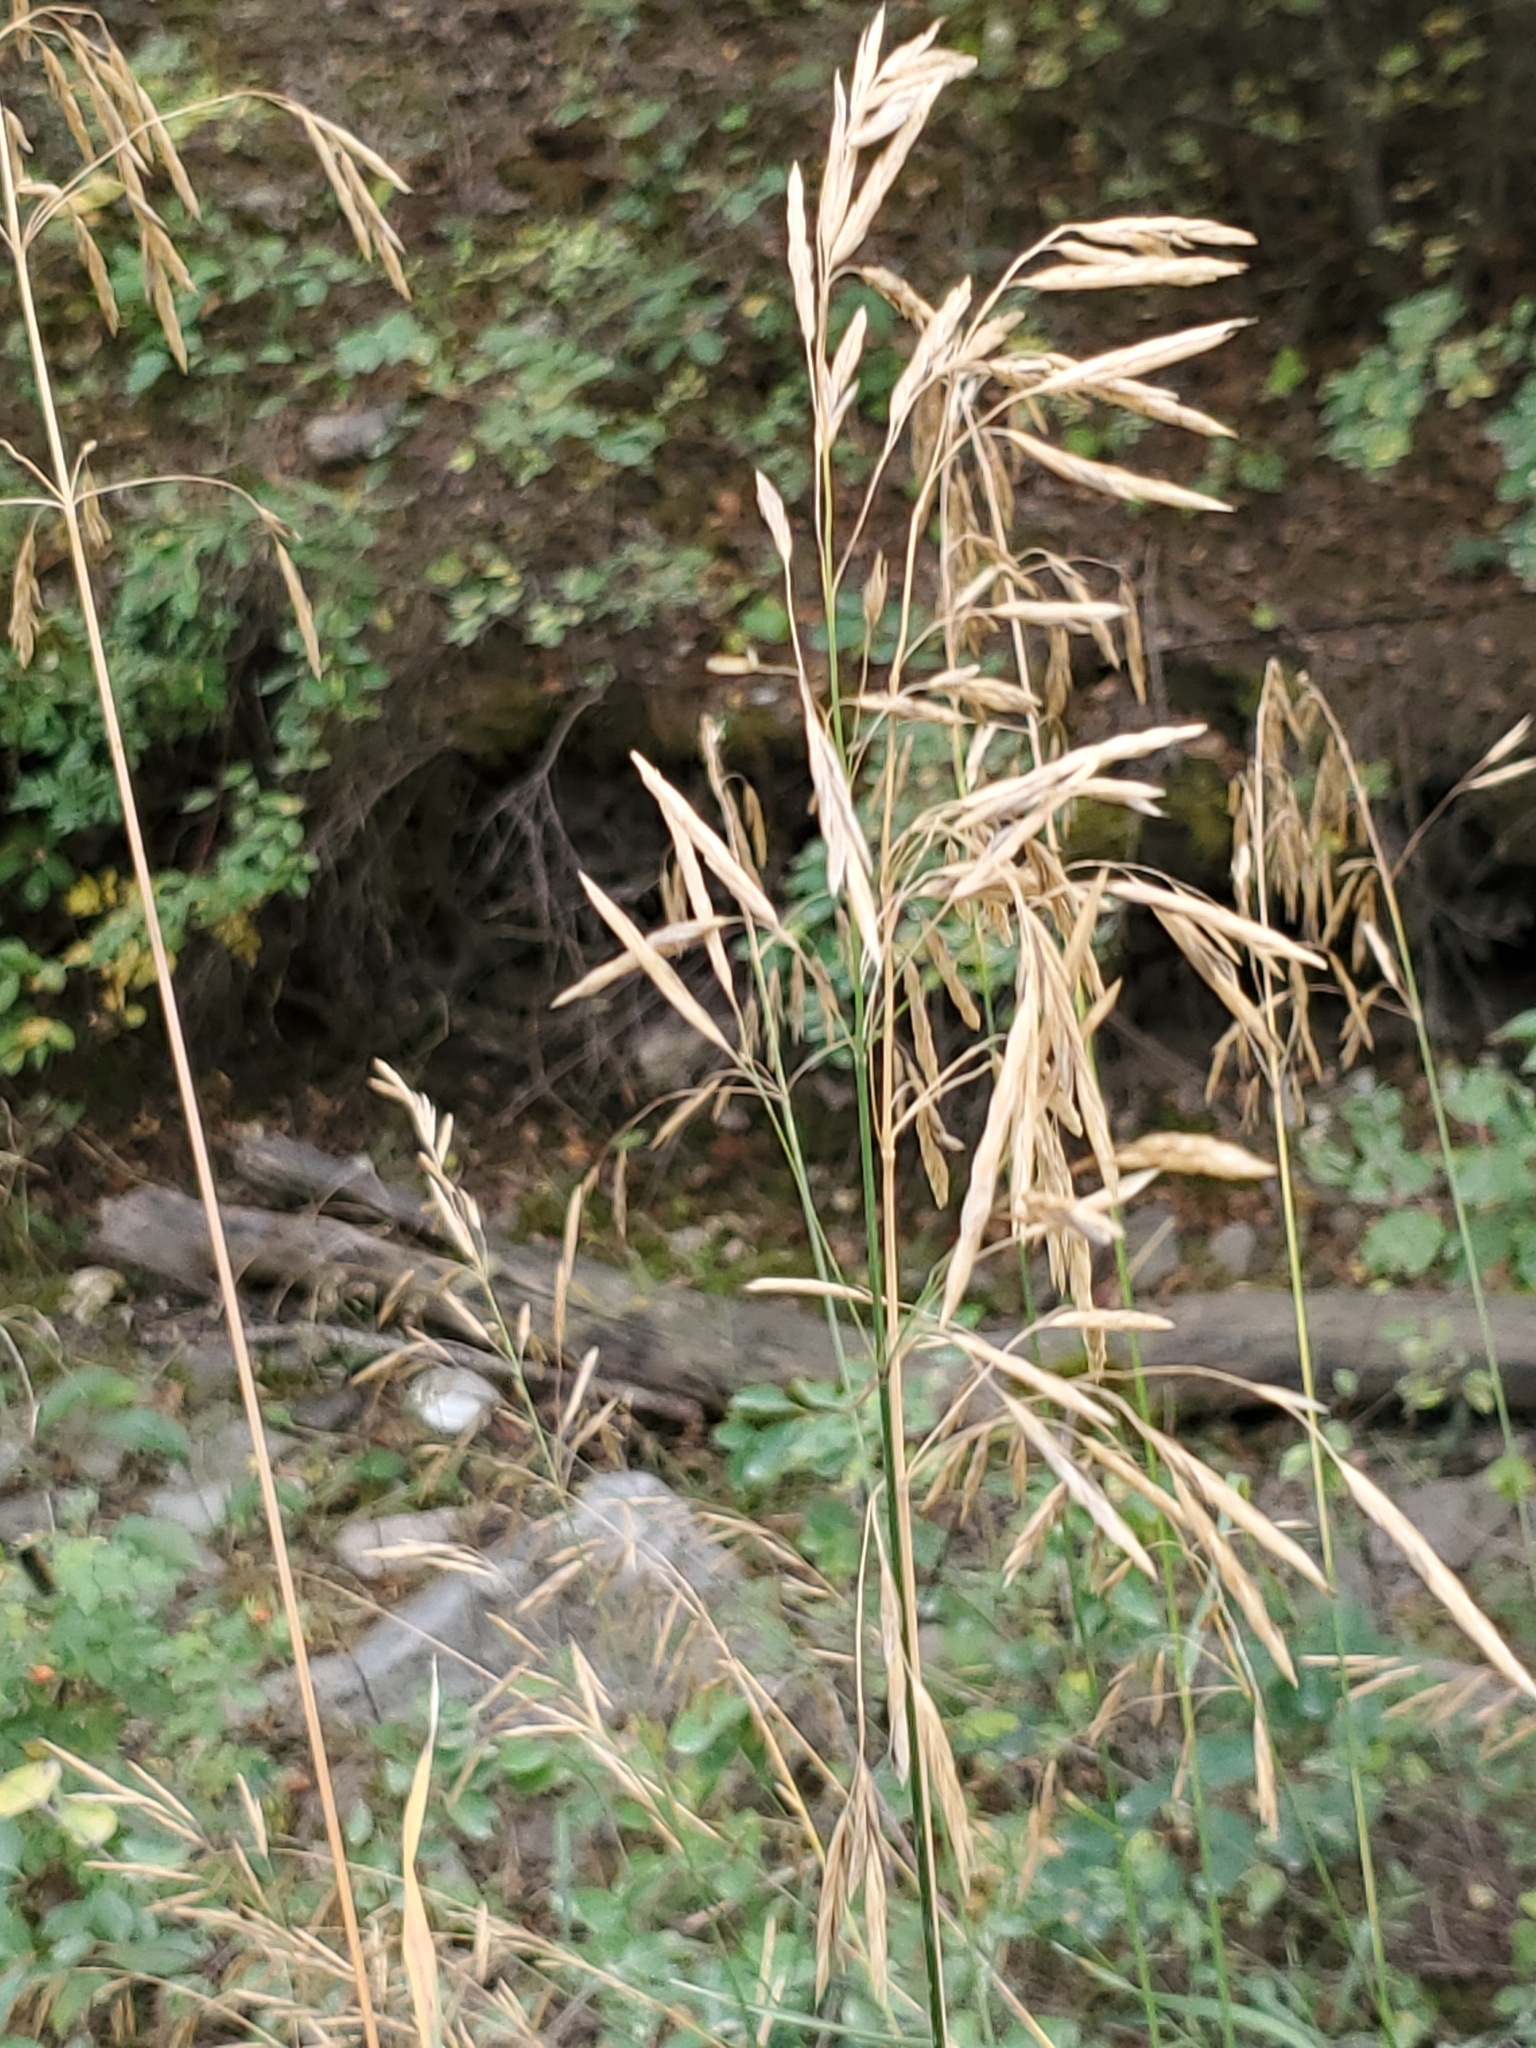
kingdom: Plantae
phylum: Tracheophyta
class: Liliopsida
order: Poales
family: Poaceae
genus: Bromus
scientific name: Bromus inermis
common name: Smooth brome
